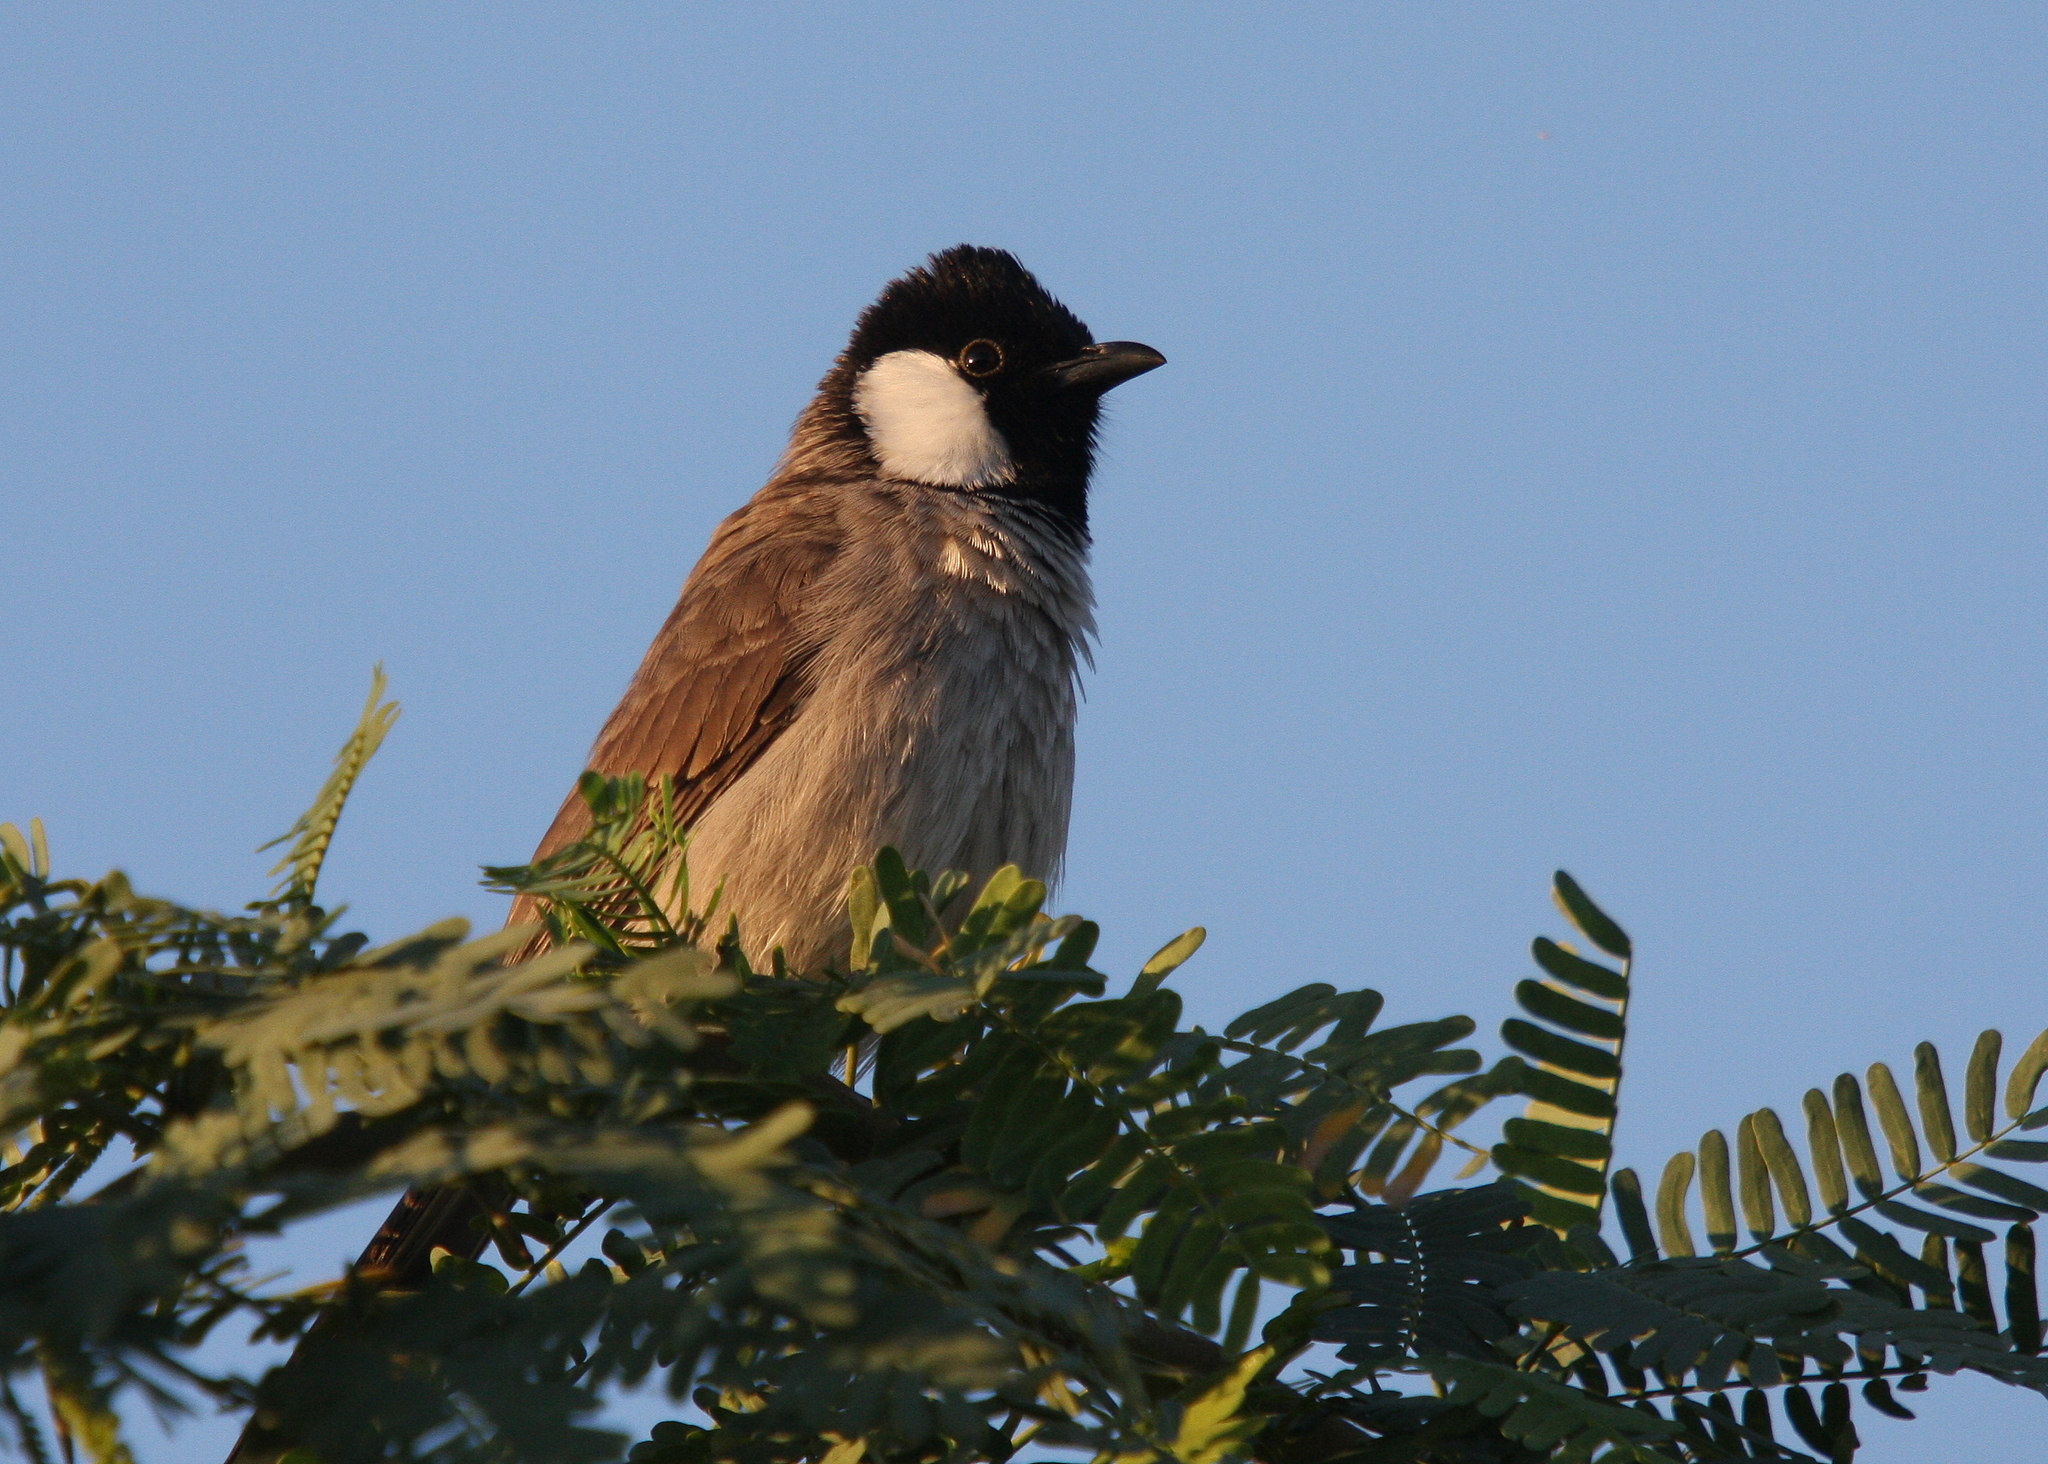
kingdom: Animalia
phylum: Chordata
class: Aves
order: Passeriformes
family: Pycnonotidae
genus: Pycnonotus
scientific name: Pycnonotus leucotis
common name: White-eared bulbul
